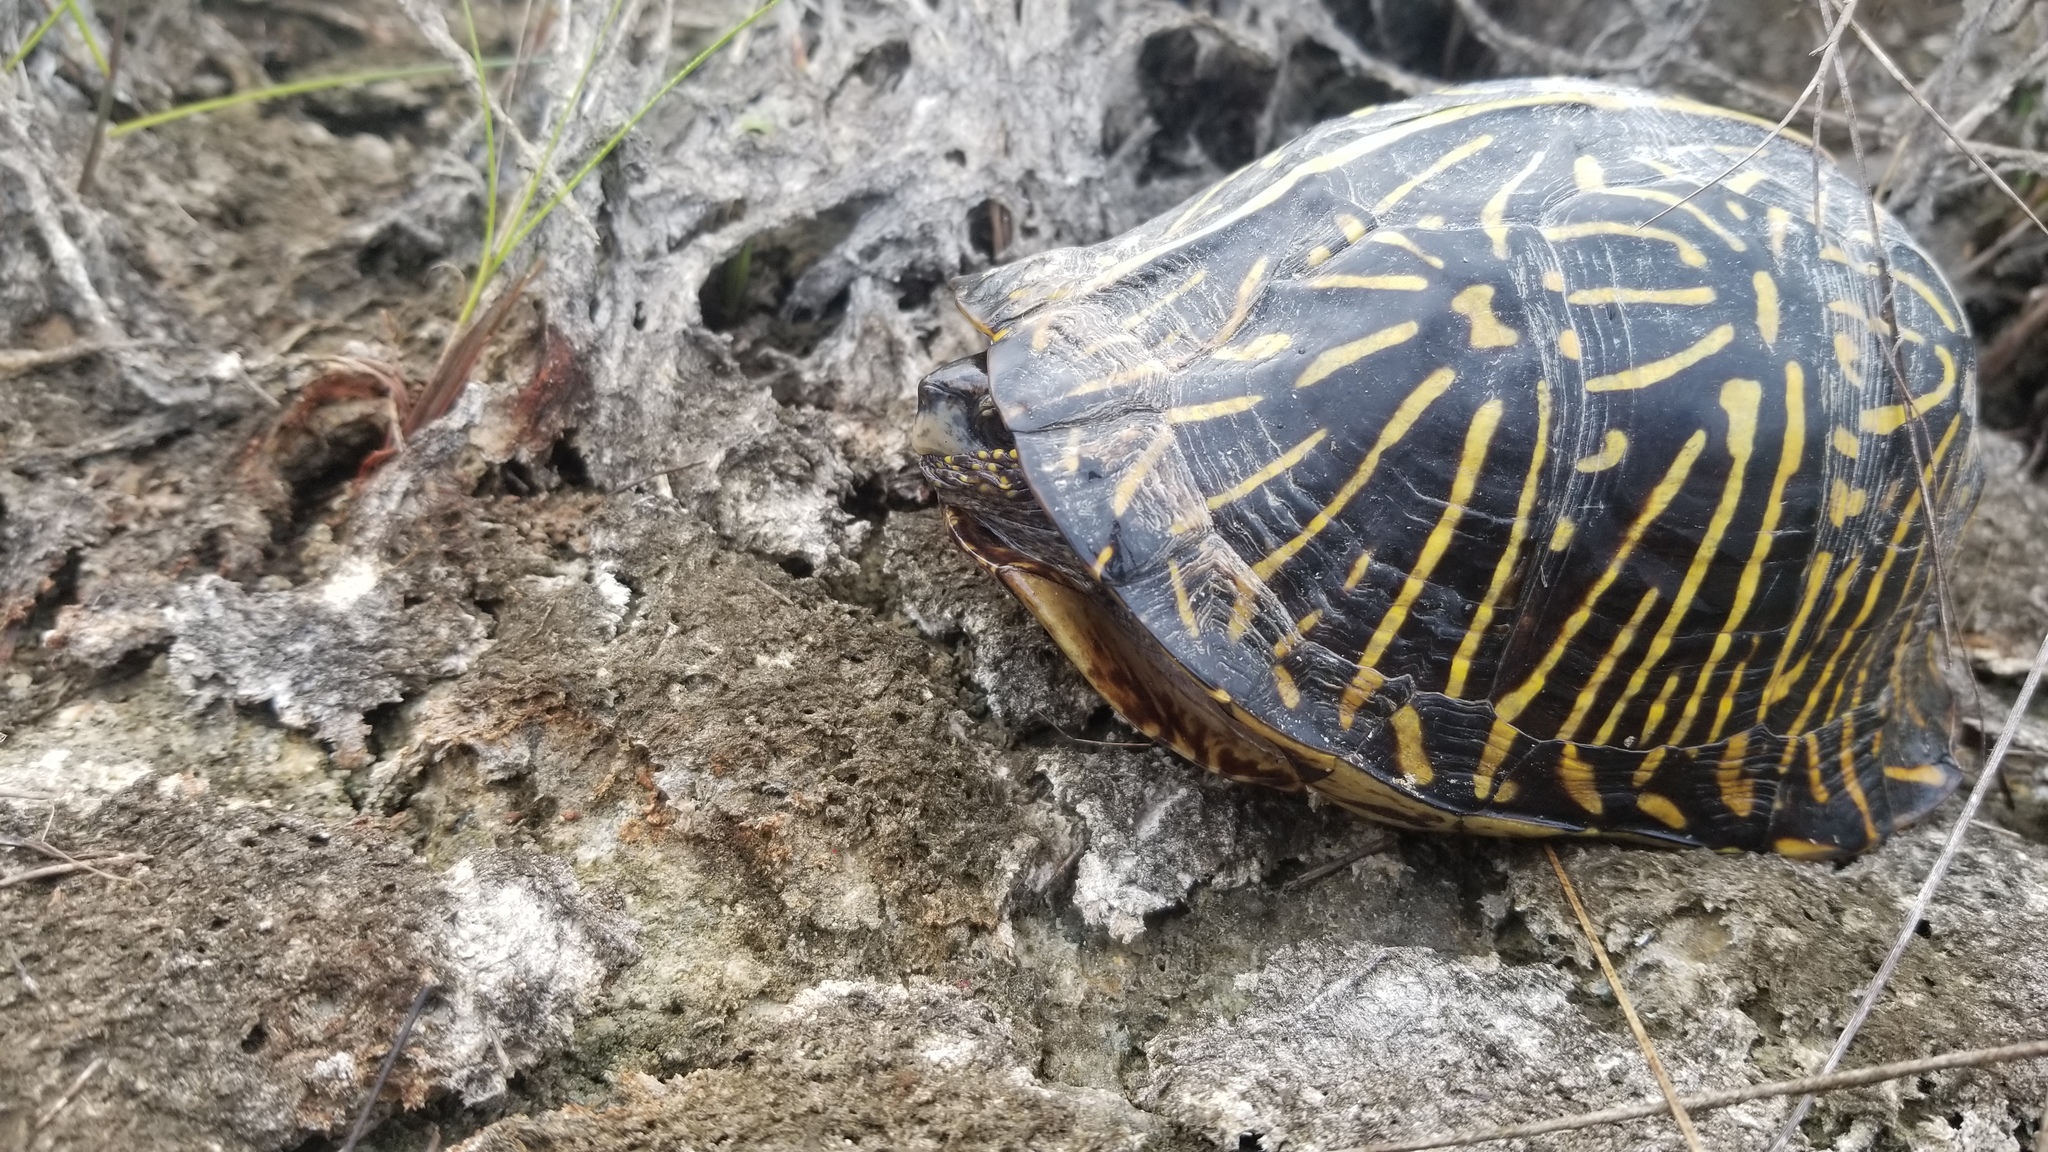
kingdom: Animalia
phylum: Chordata
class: Testudines
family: Emydidae
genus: Terrapene
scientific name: Terrapene carolina
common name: Common box turtle
